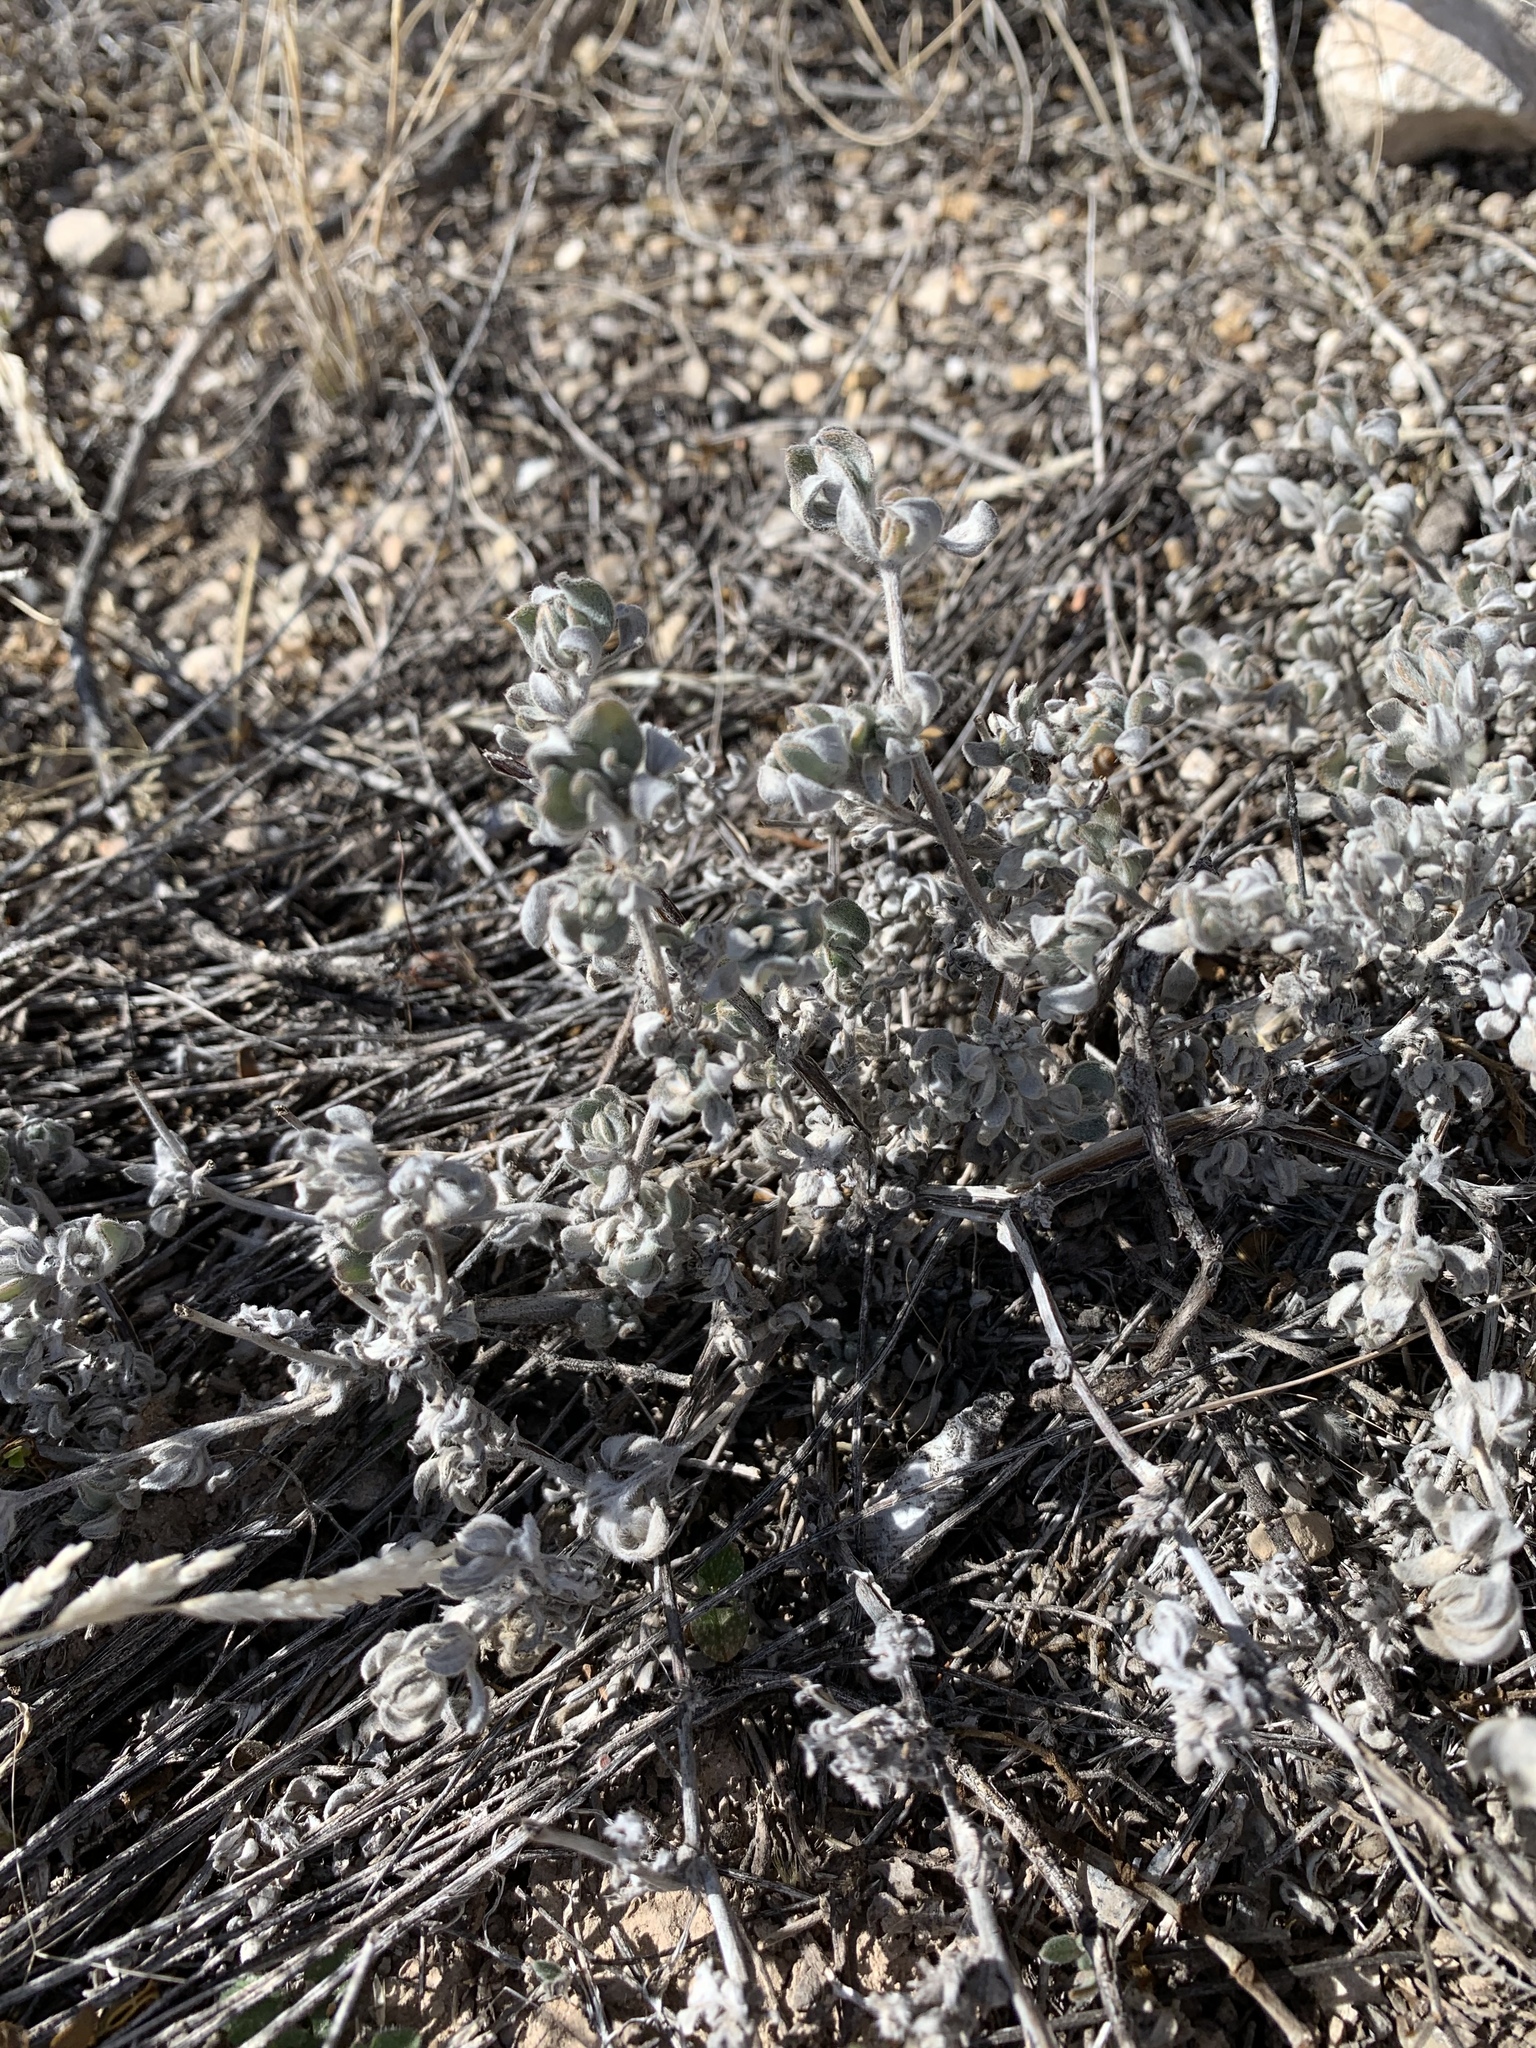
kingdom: Plantae
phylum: Tracheophyta
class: Magnoliopsida
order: Boraginales
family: Ehretiaceae
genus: Tiquilia
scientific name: Tiquilia canescens
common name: Hairy tiquilia
